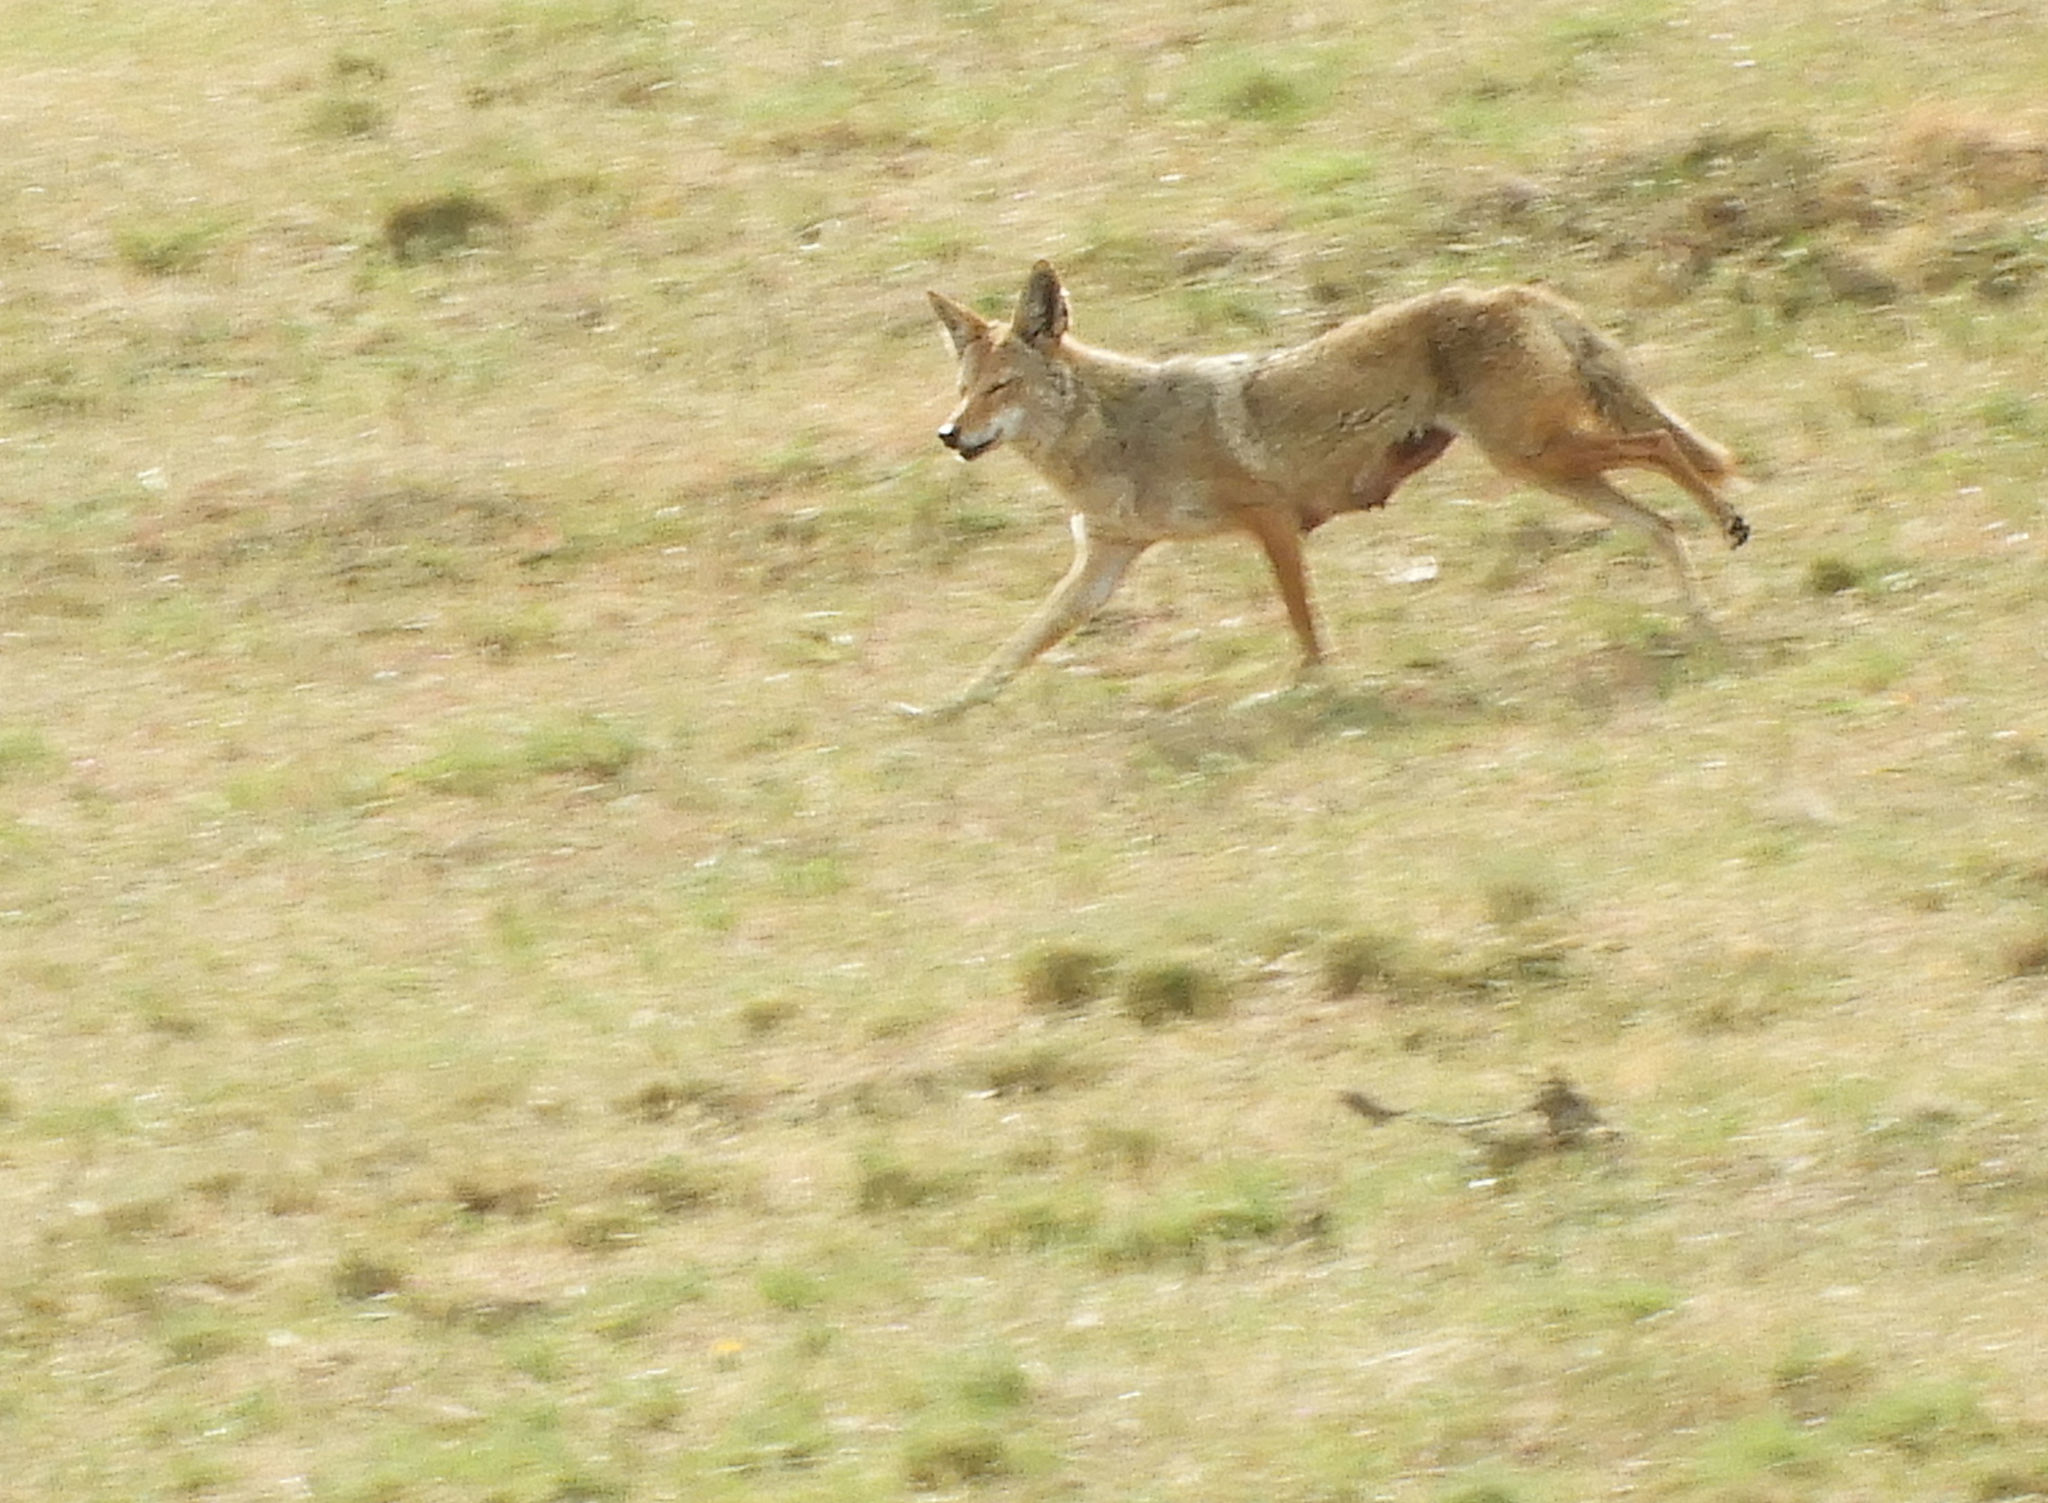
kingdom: Animalia
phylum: Chordata
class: Mammalia
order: Carnivora
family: Canidae
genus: Canis
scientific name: Canis latrans
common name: Coyote
